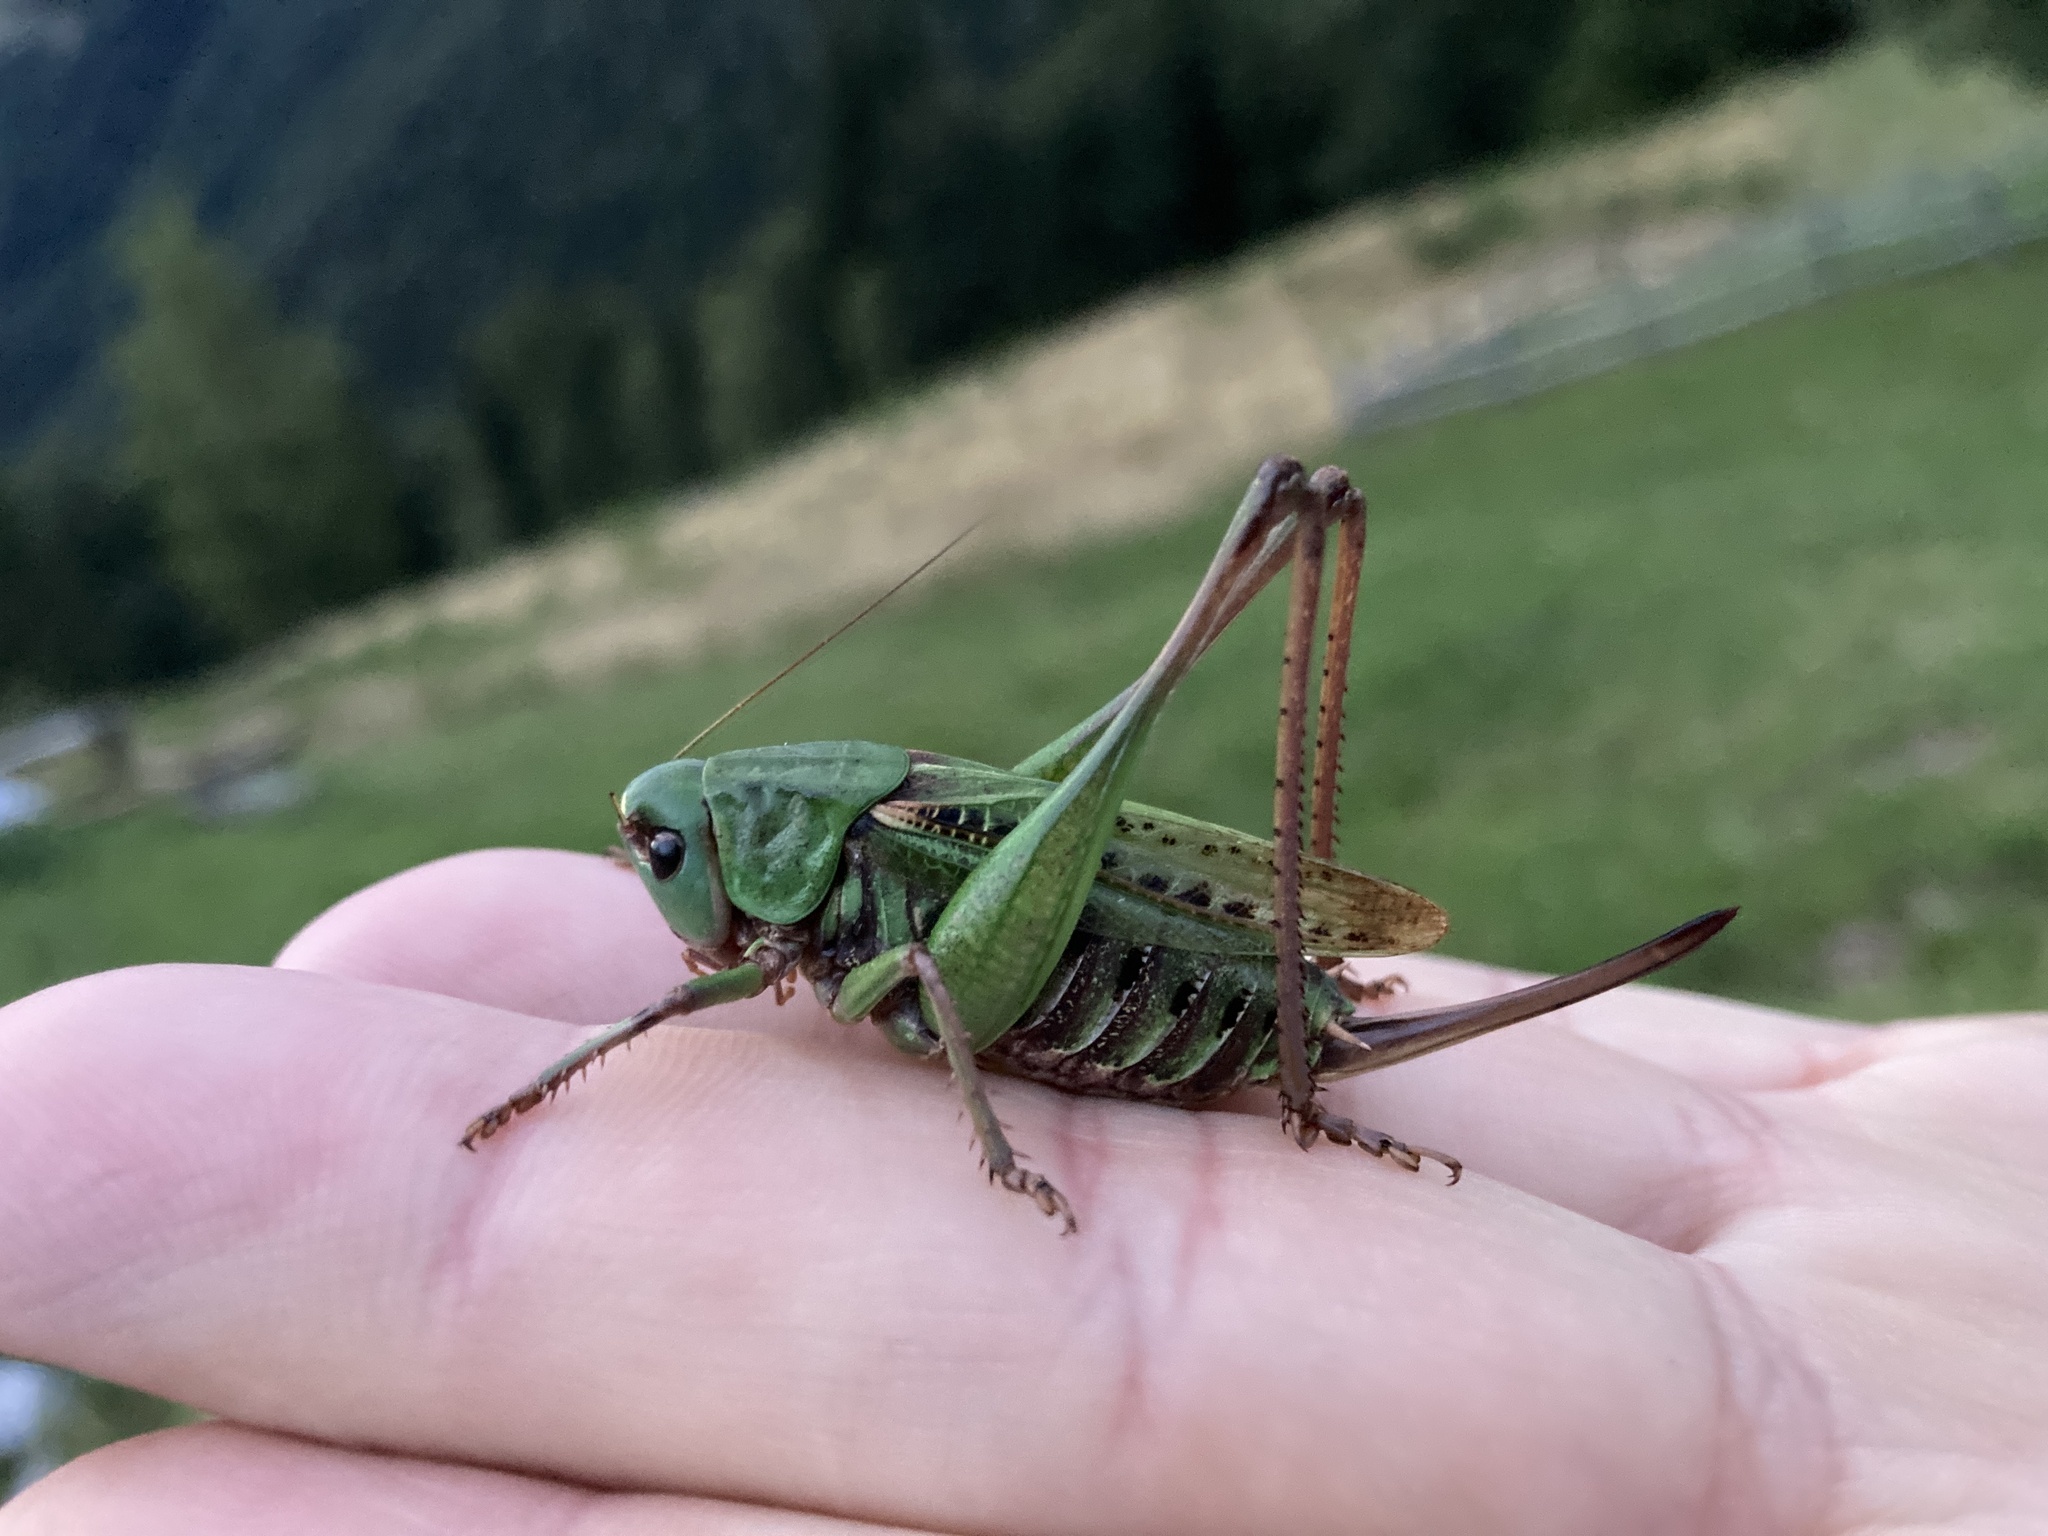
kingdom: Animalia
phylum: Arthropoda
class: Insecta
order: Orthoptera
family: Tettigoniidae
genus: Decticus
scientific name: Decticus verrucivorus
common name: Wart-biter
